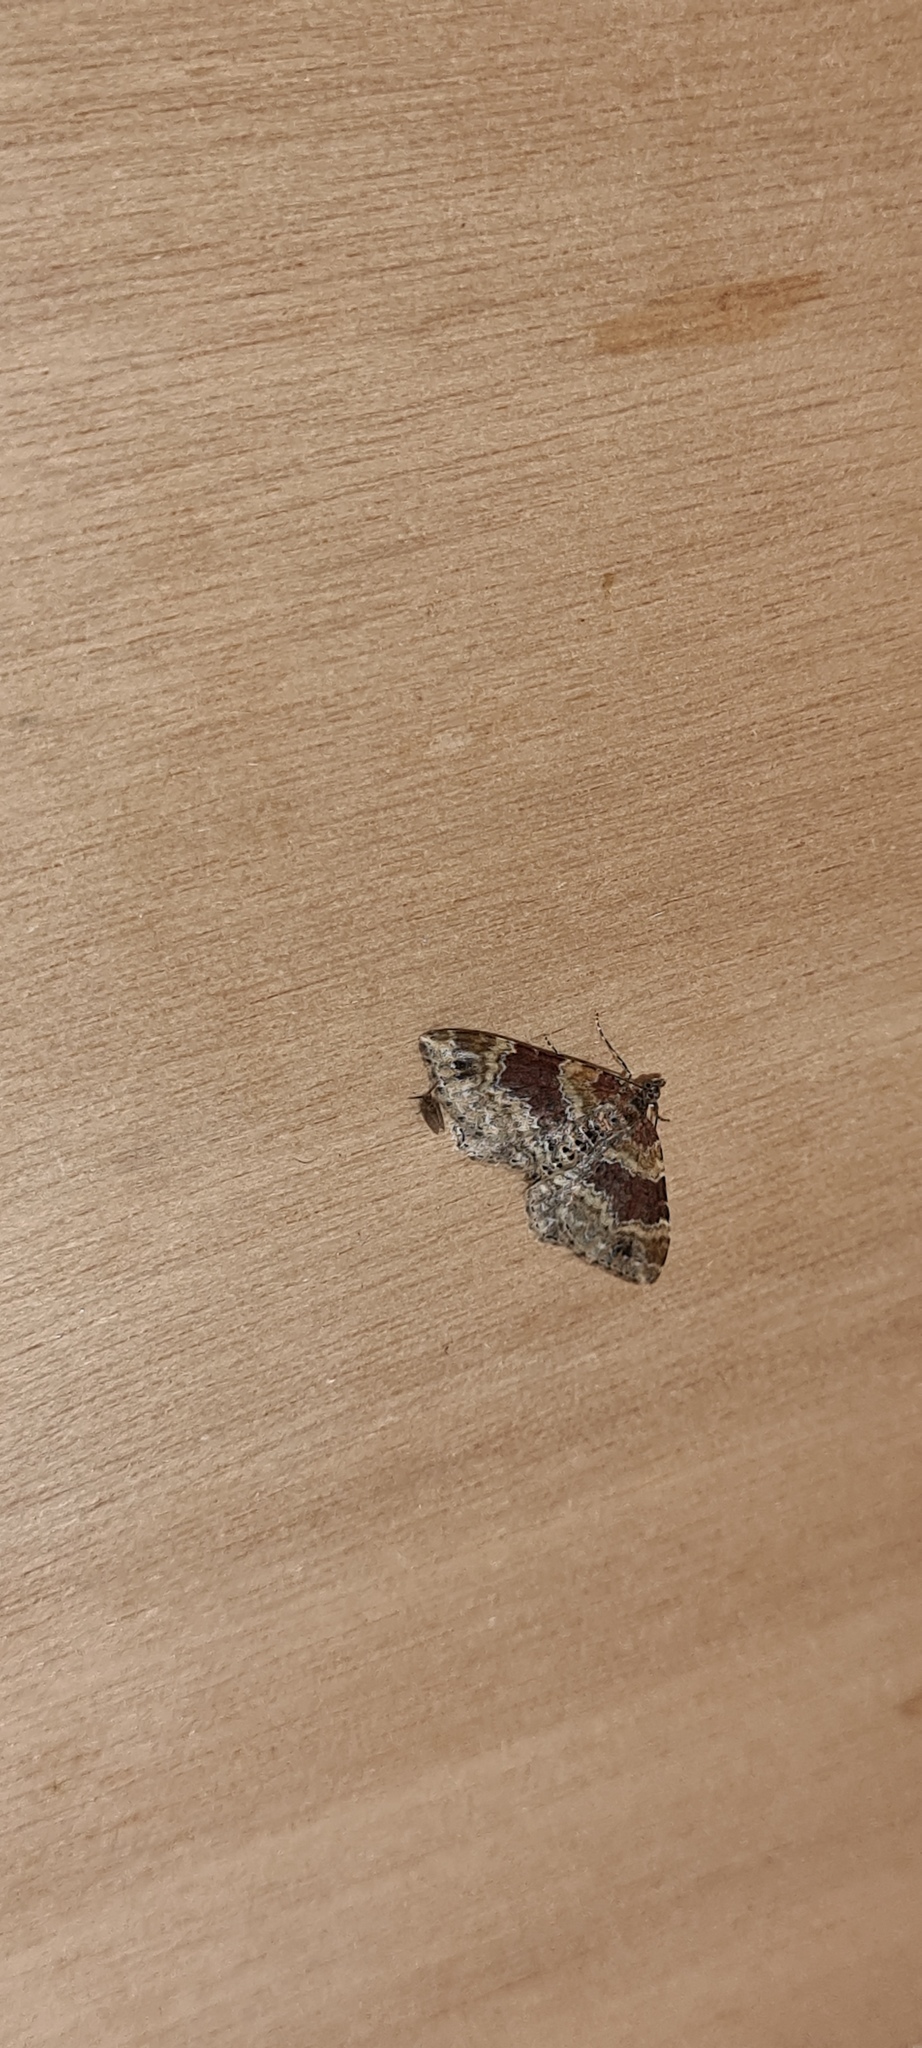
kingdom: Animalia
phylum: Arthropoda
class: Insecta
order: Lepidoptera
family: Geometridae
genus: Xanthorhoe
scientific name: Xanthorhoe spadicearia
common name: Red twin-spot carpet
